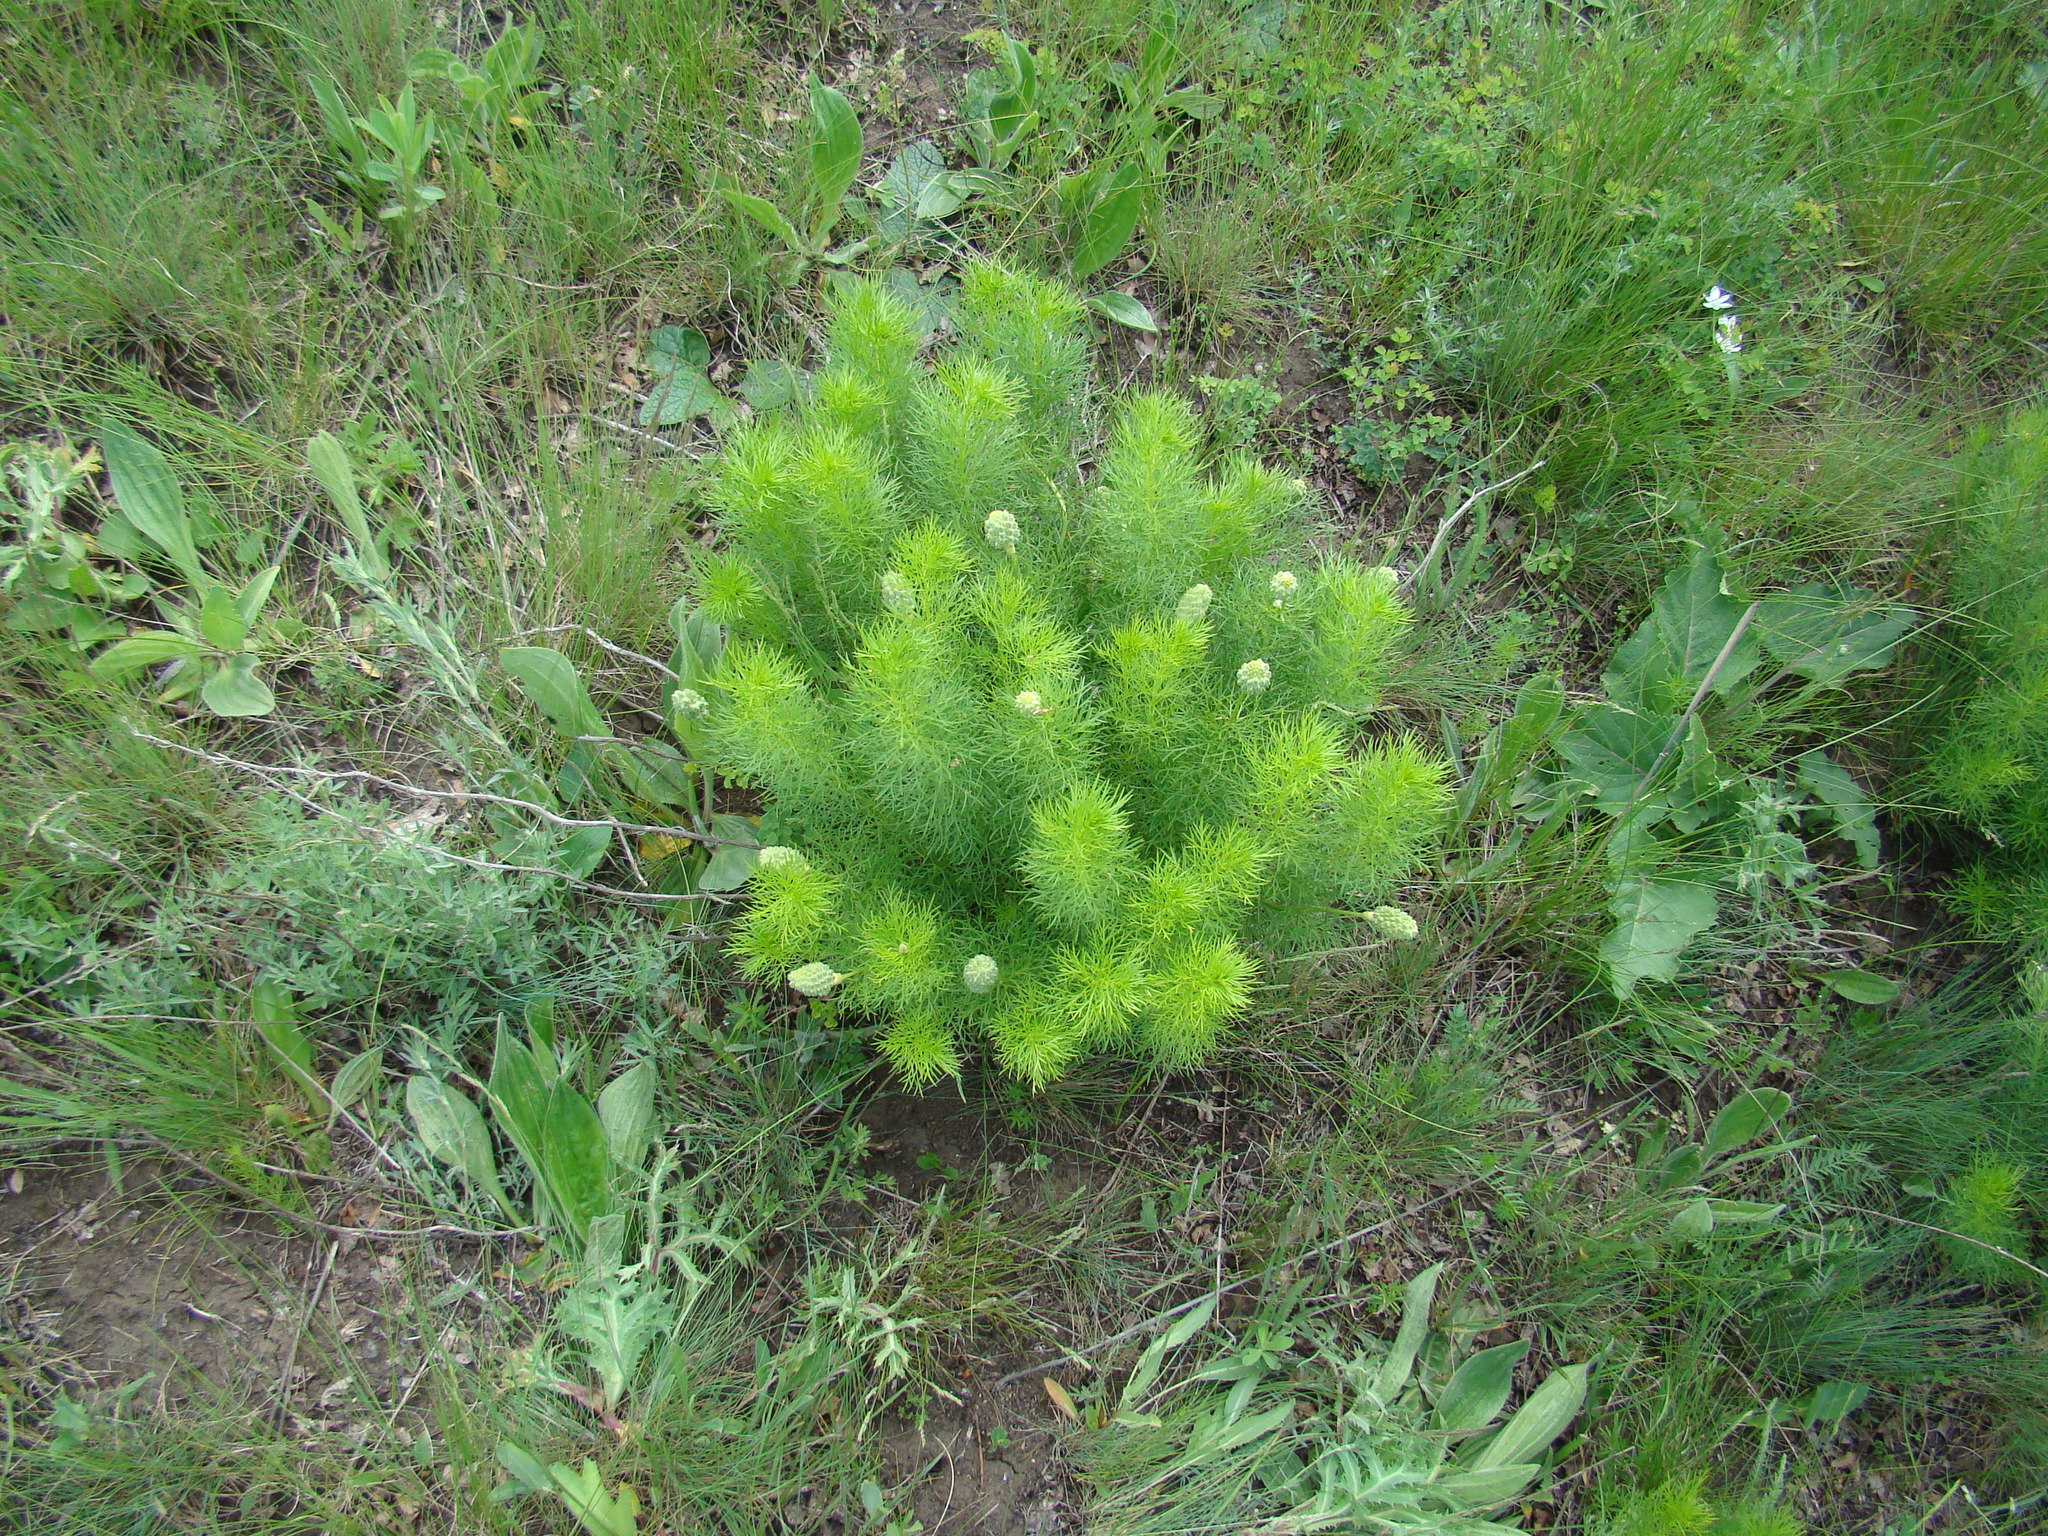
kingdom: Plantae
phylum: Tracheophyta
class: Magnoliopsida
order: Ranunculales
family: Ranunculaceae
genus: Adonis
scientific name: Adonis vernalis
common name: Yellow pheasants-eye
